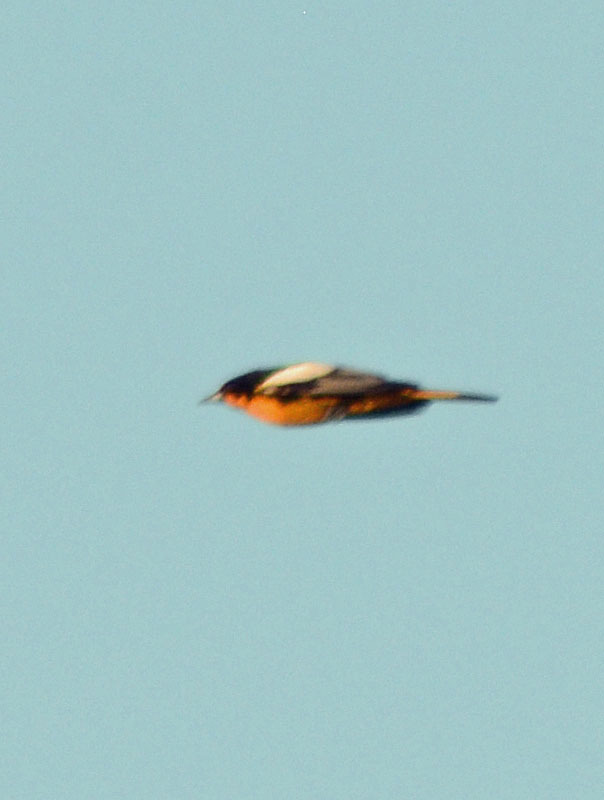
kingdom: Animalia
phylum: Chordata
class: Aves
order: Passeriformes
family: Icteridae
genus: Icterus
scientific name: Icterus abeillei
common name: Black-backed oriole
